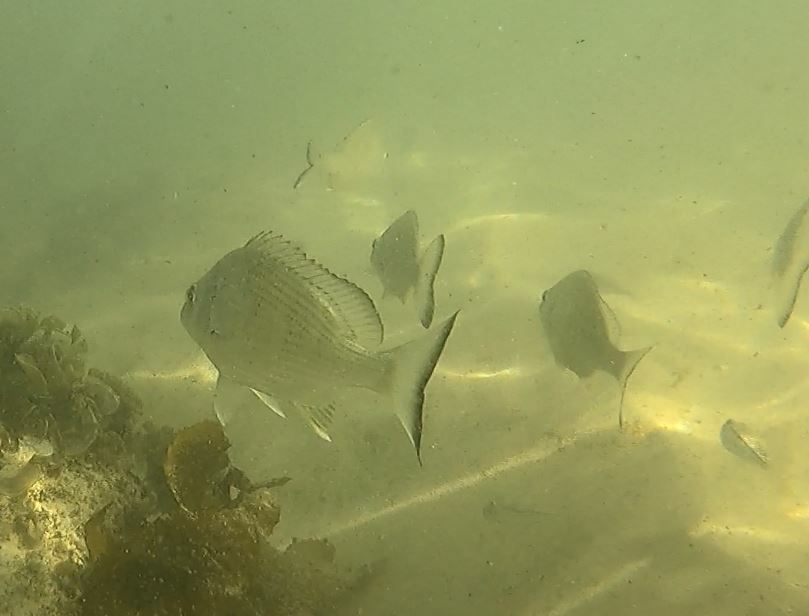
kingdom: Animalia
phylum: Chordata
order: Perciformes
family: Sparidae
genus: Acanthopagrus
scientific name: Acanthopagrus australis
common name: Surf bream
